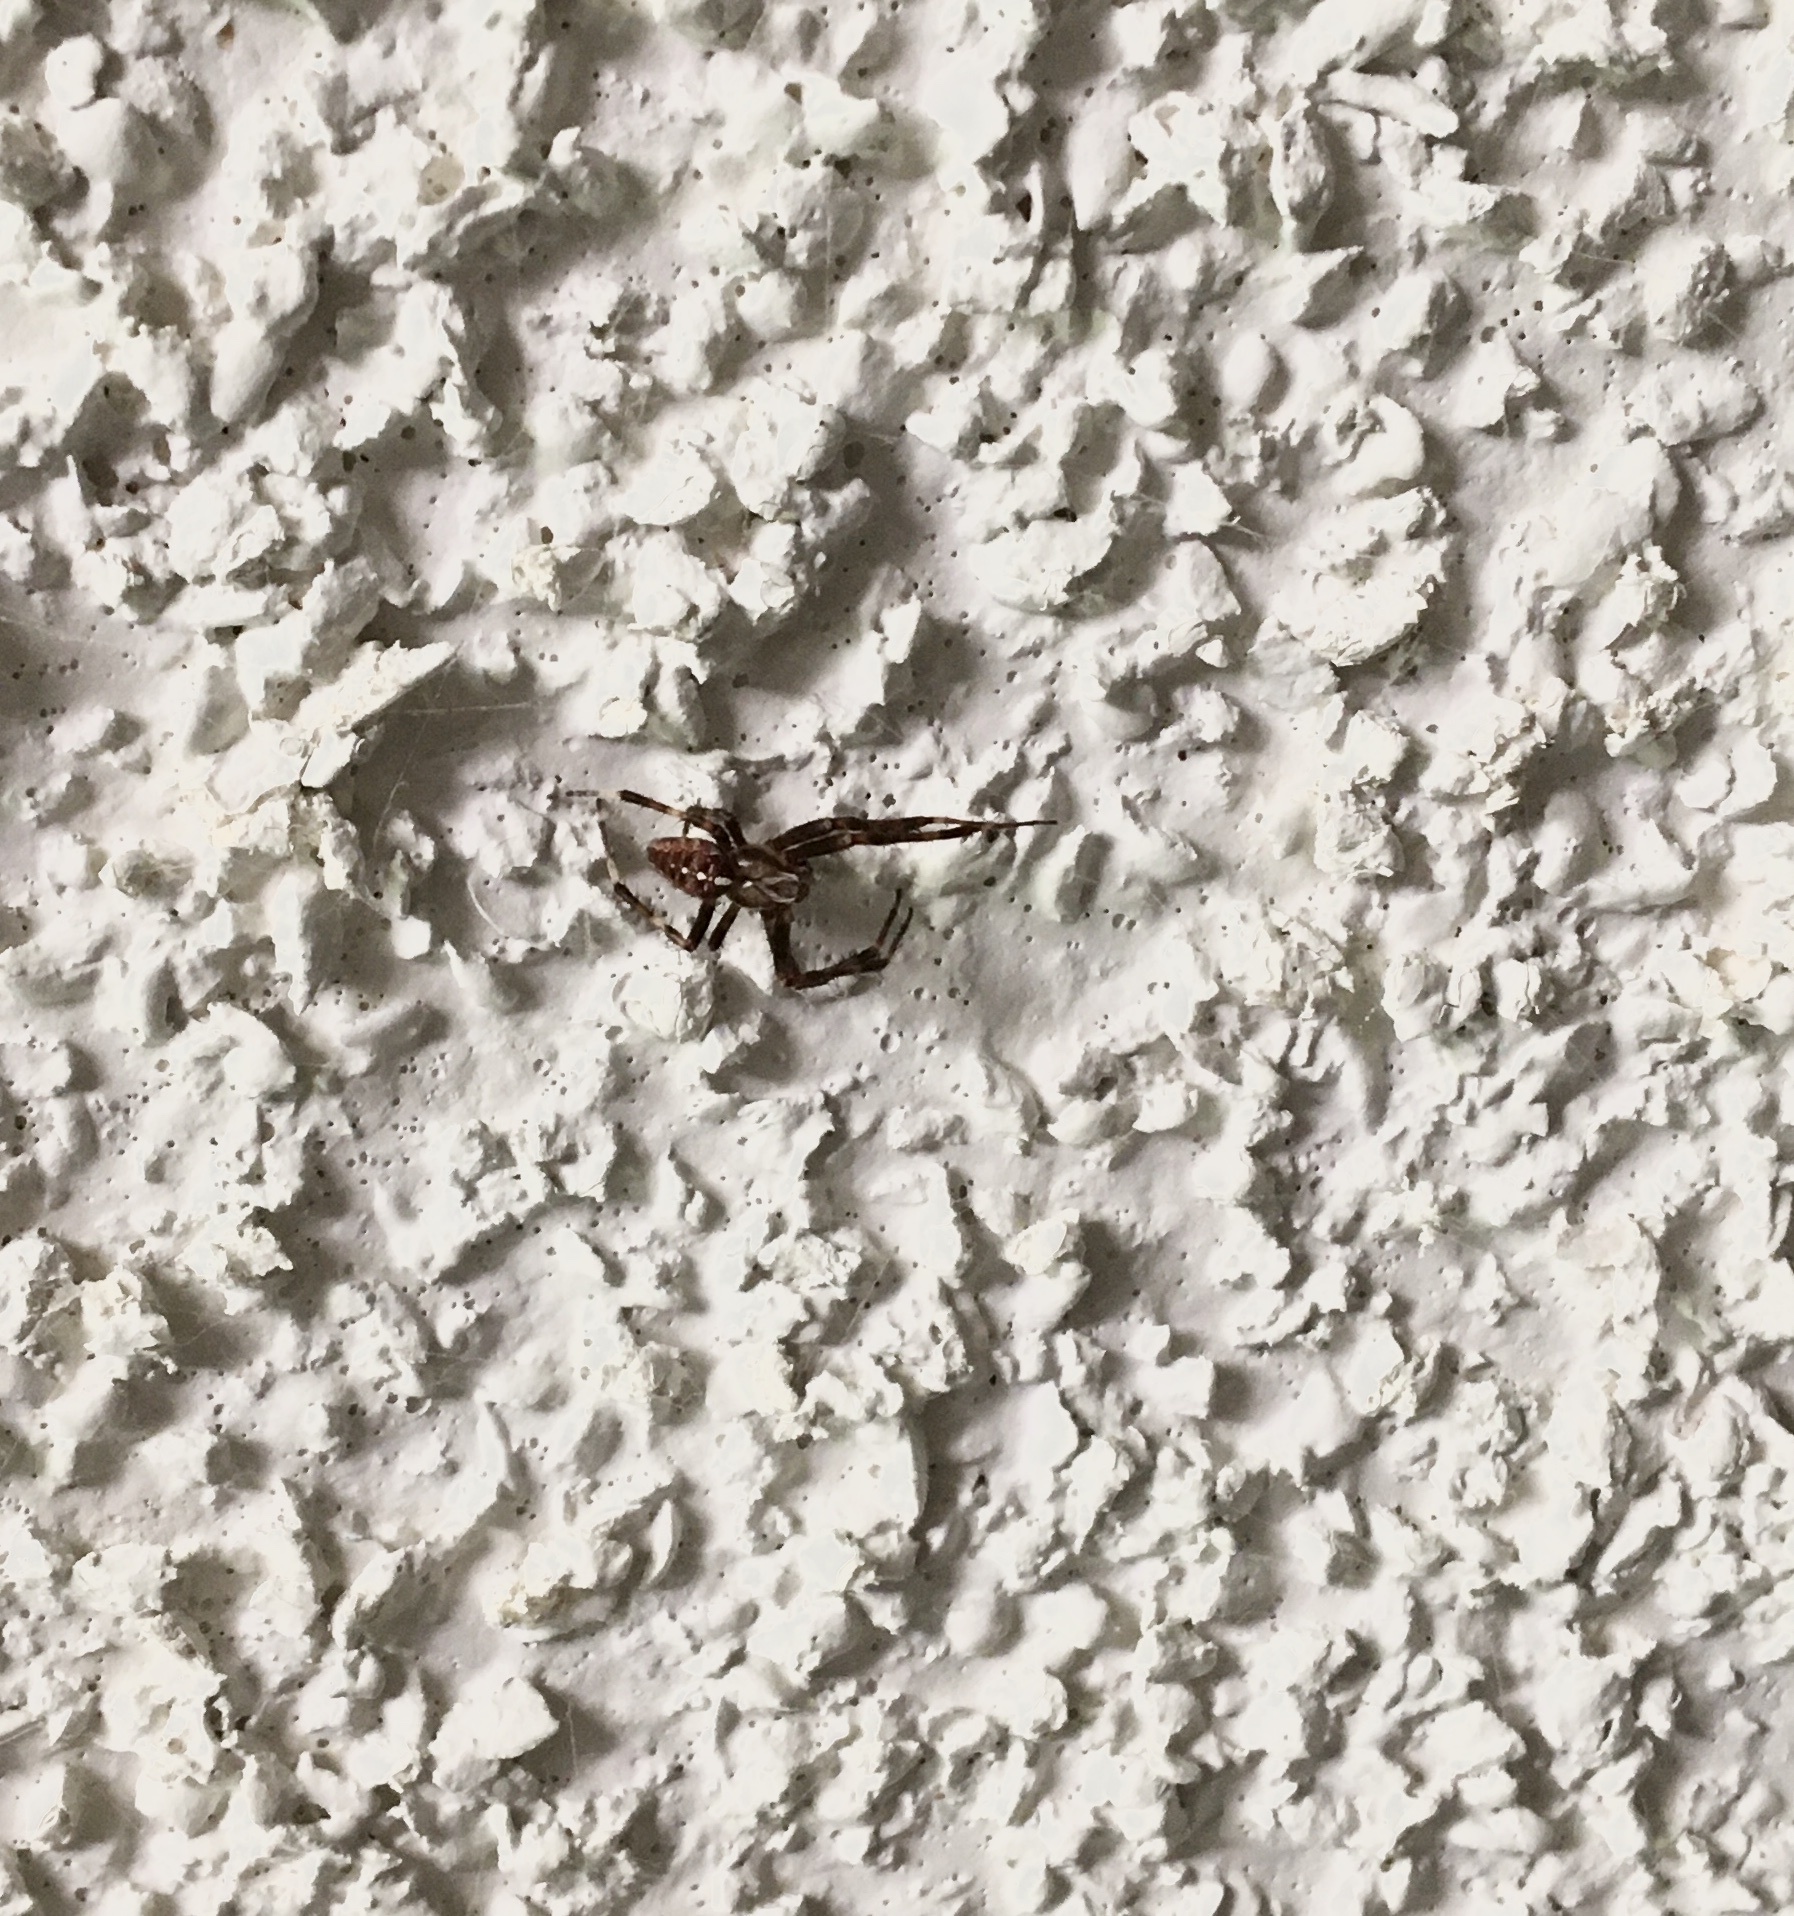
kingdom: Animalia
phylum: Arthropoda
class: Arachnida
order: Araneae
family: Araneidae
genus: Araneus
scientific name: Araneus diadematus
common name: Cross orbweaver
